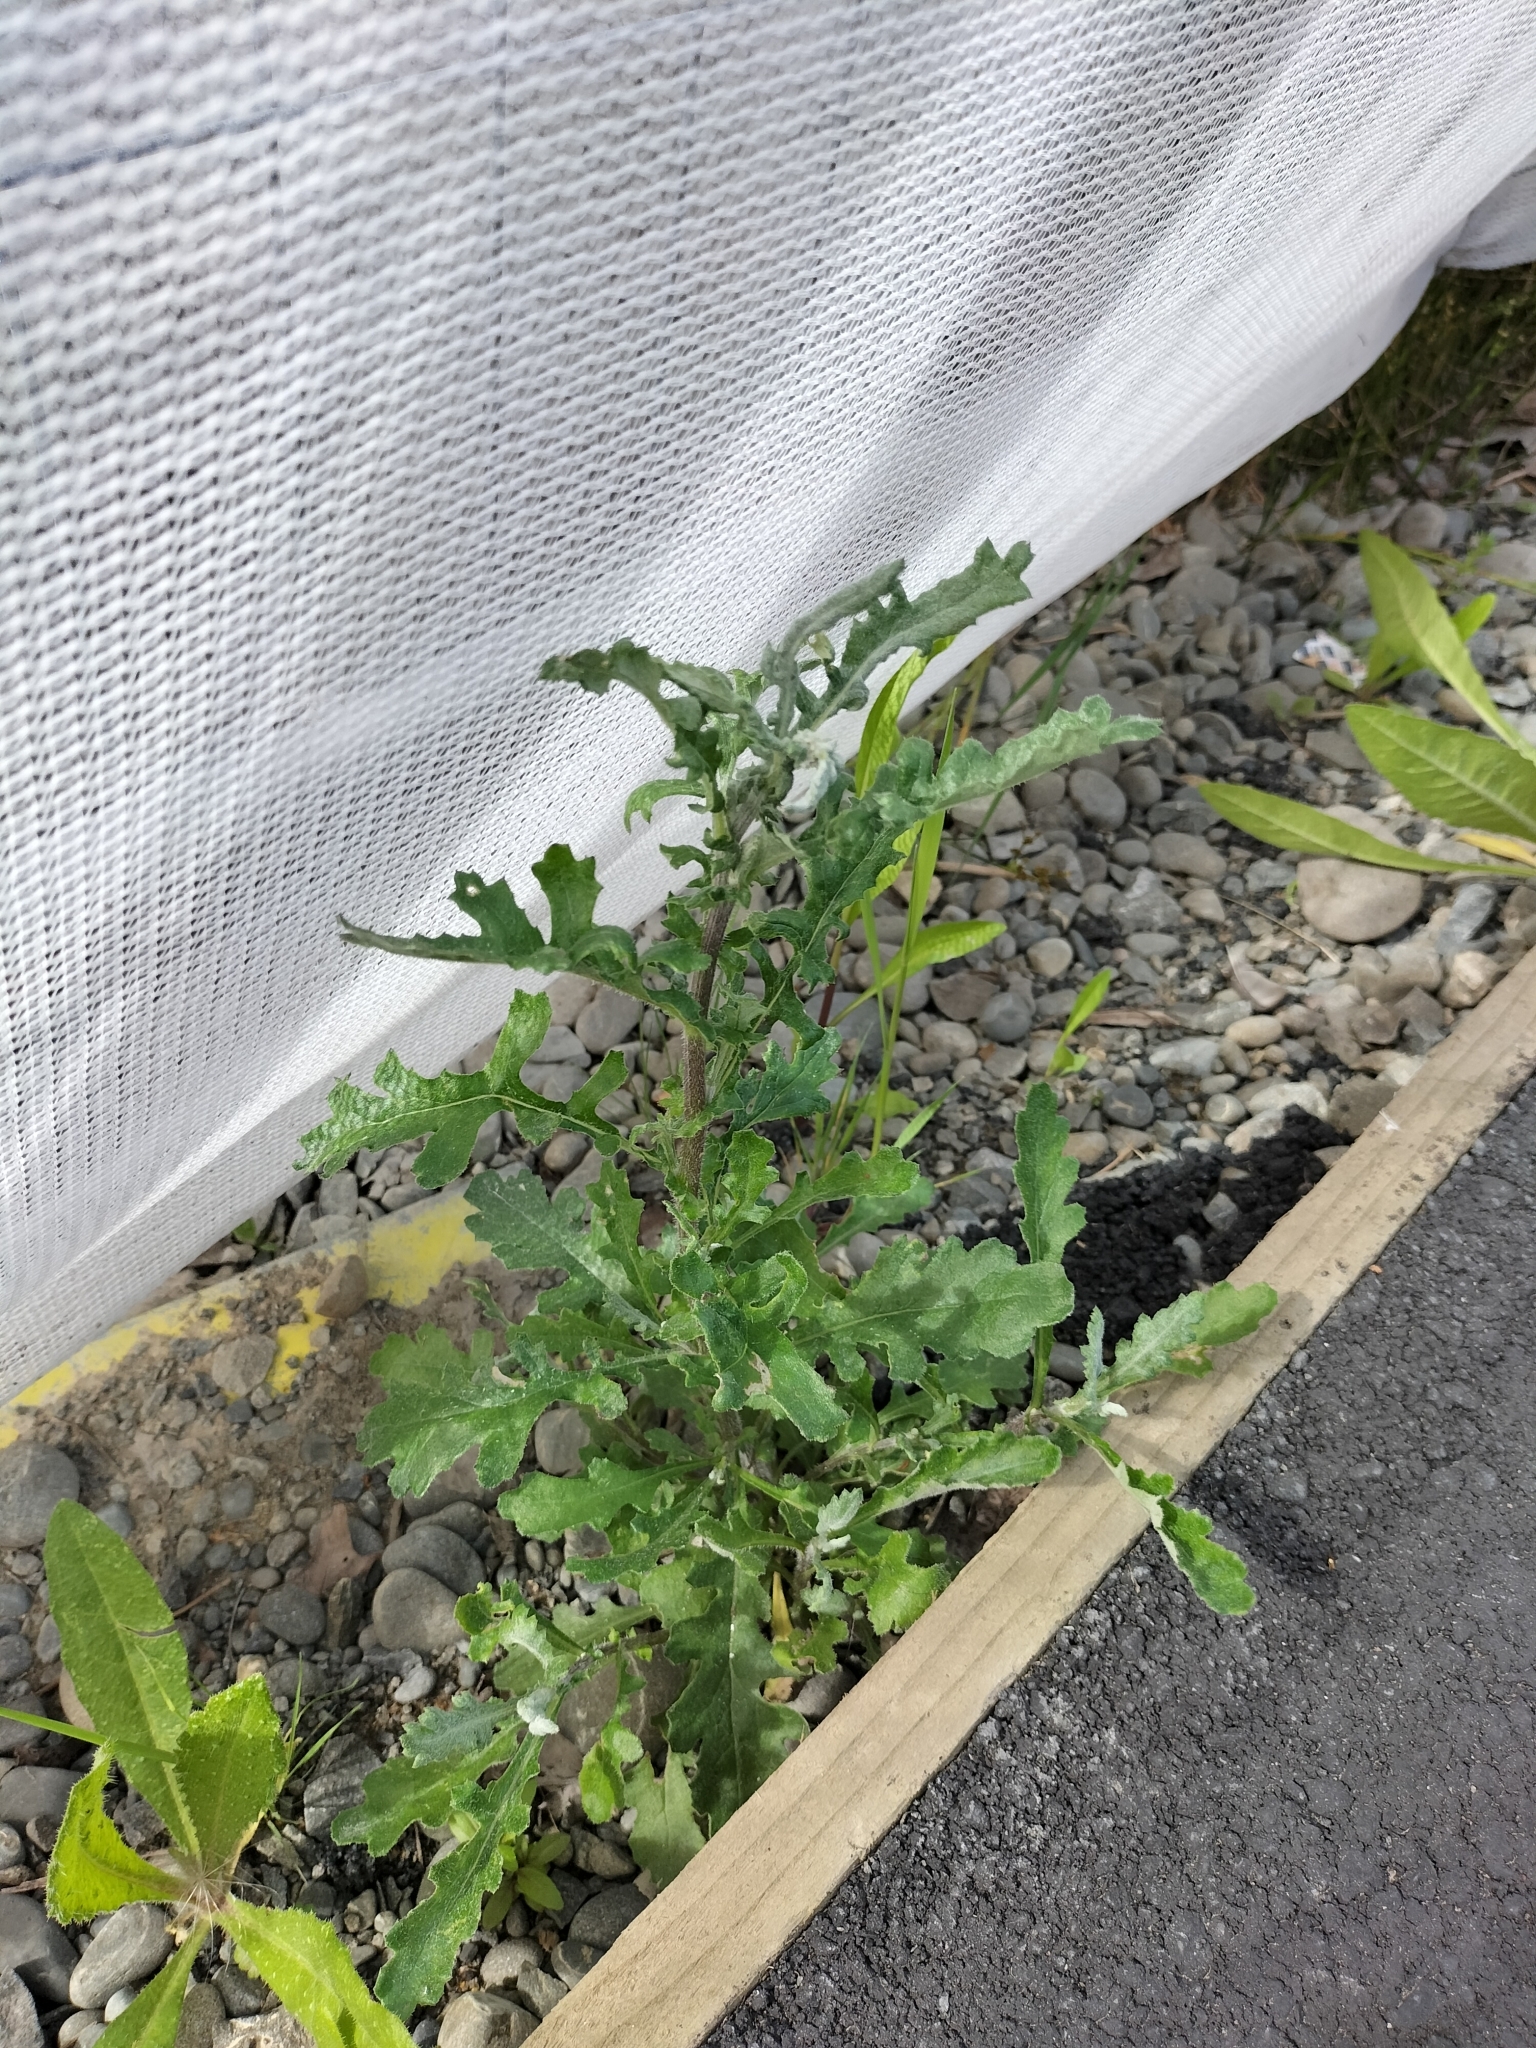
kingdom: Plantae
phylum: Tracheophyta
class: Magnoliopsida
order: Asterales
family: Asteraceae
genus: Senecio
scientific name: Senecio glomeratus
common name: Cutleaf burnweed
